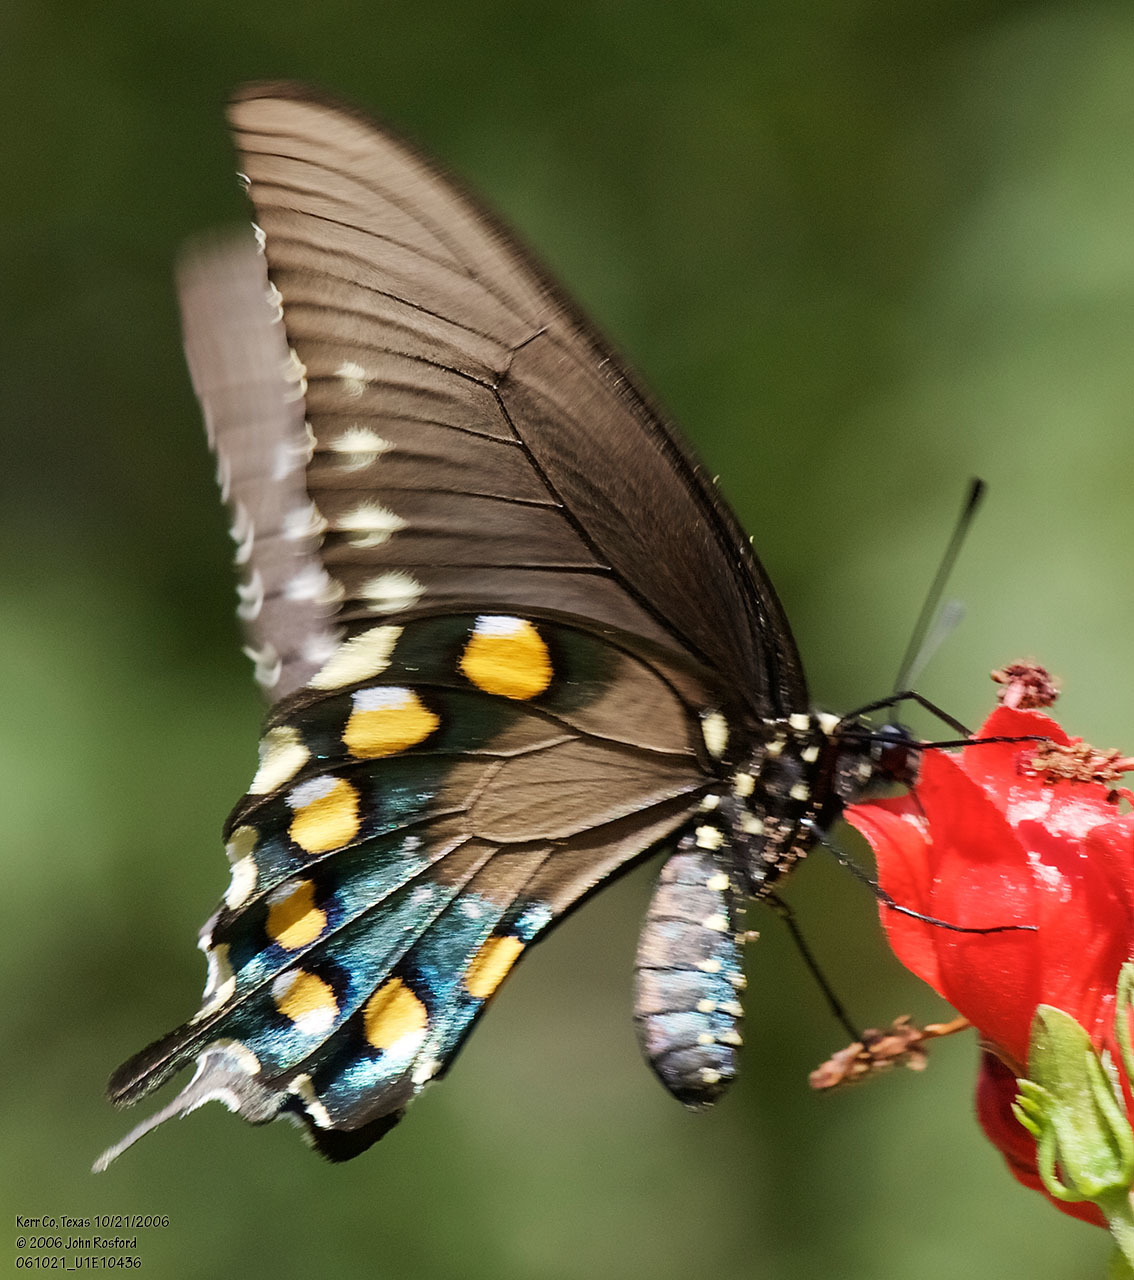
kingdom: Animalia
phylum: Arthropoda
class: Insecta
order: Lepidoptera
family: Papilionidae
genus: Battus
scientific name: Battus philenor
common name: Pipevine swallowtail
